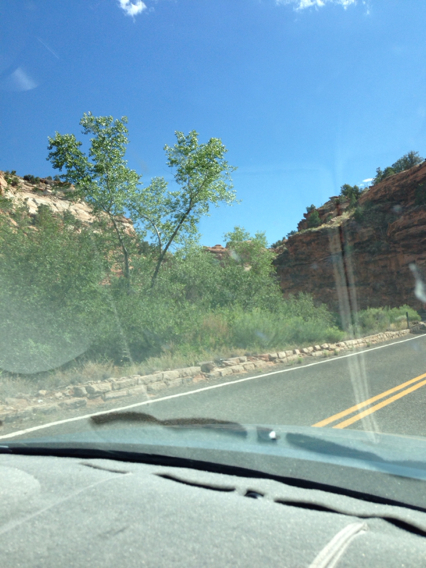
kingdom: Plantae
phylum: Tracheophyta
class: Magnoliopsida
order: Malpighiales
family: Salicaceae
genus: Populus
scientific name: Populus fremontii
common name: Fremont's cottonwood
